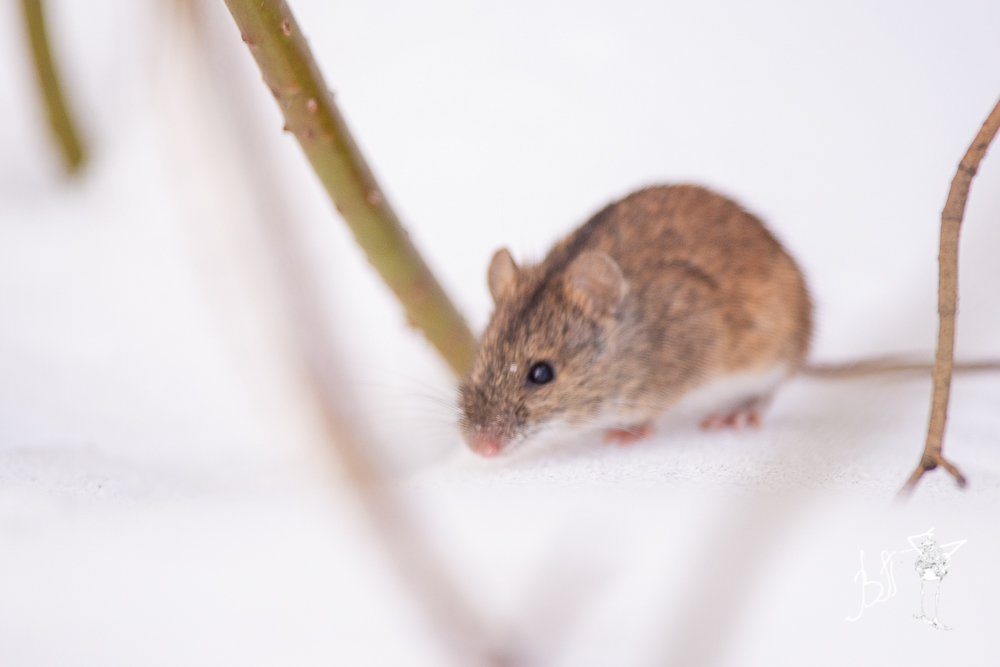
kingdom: Animalia
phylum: Chordata
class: Mammalia
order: Rodentia
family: Muridae
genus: Apodemus
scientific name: Apodemus agrarius
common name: Striped field mouse
